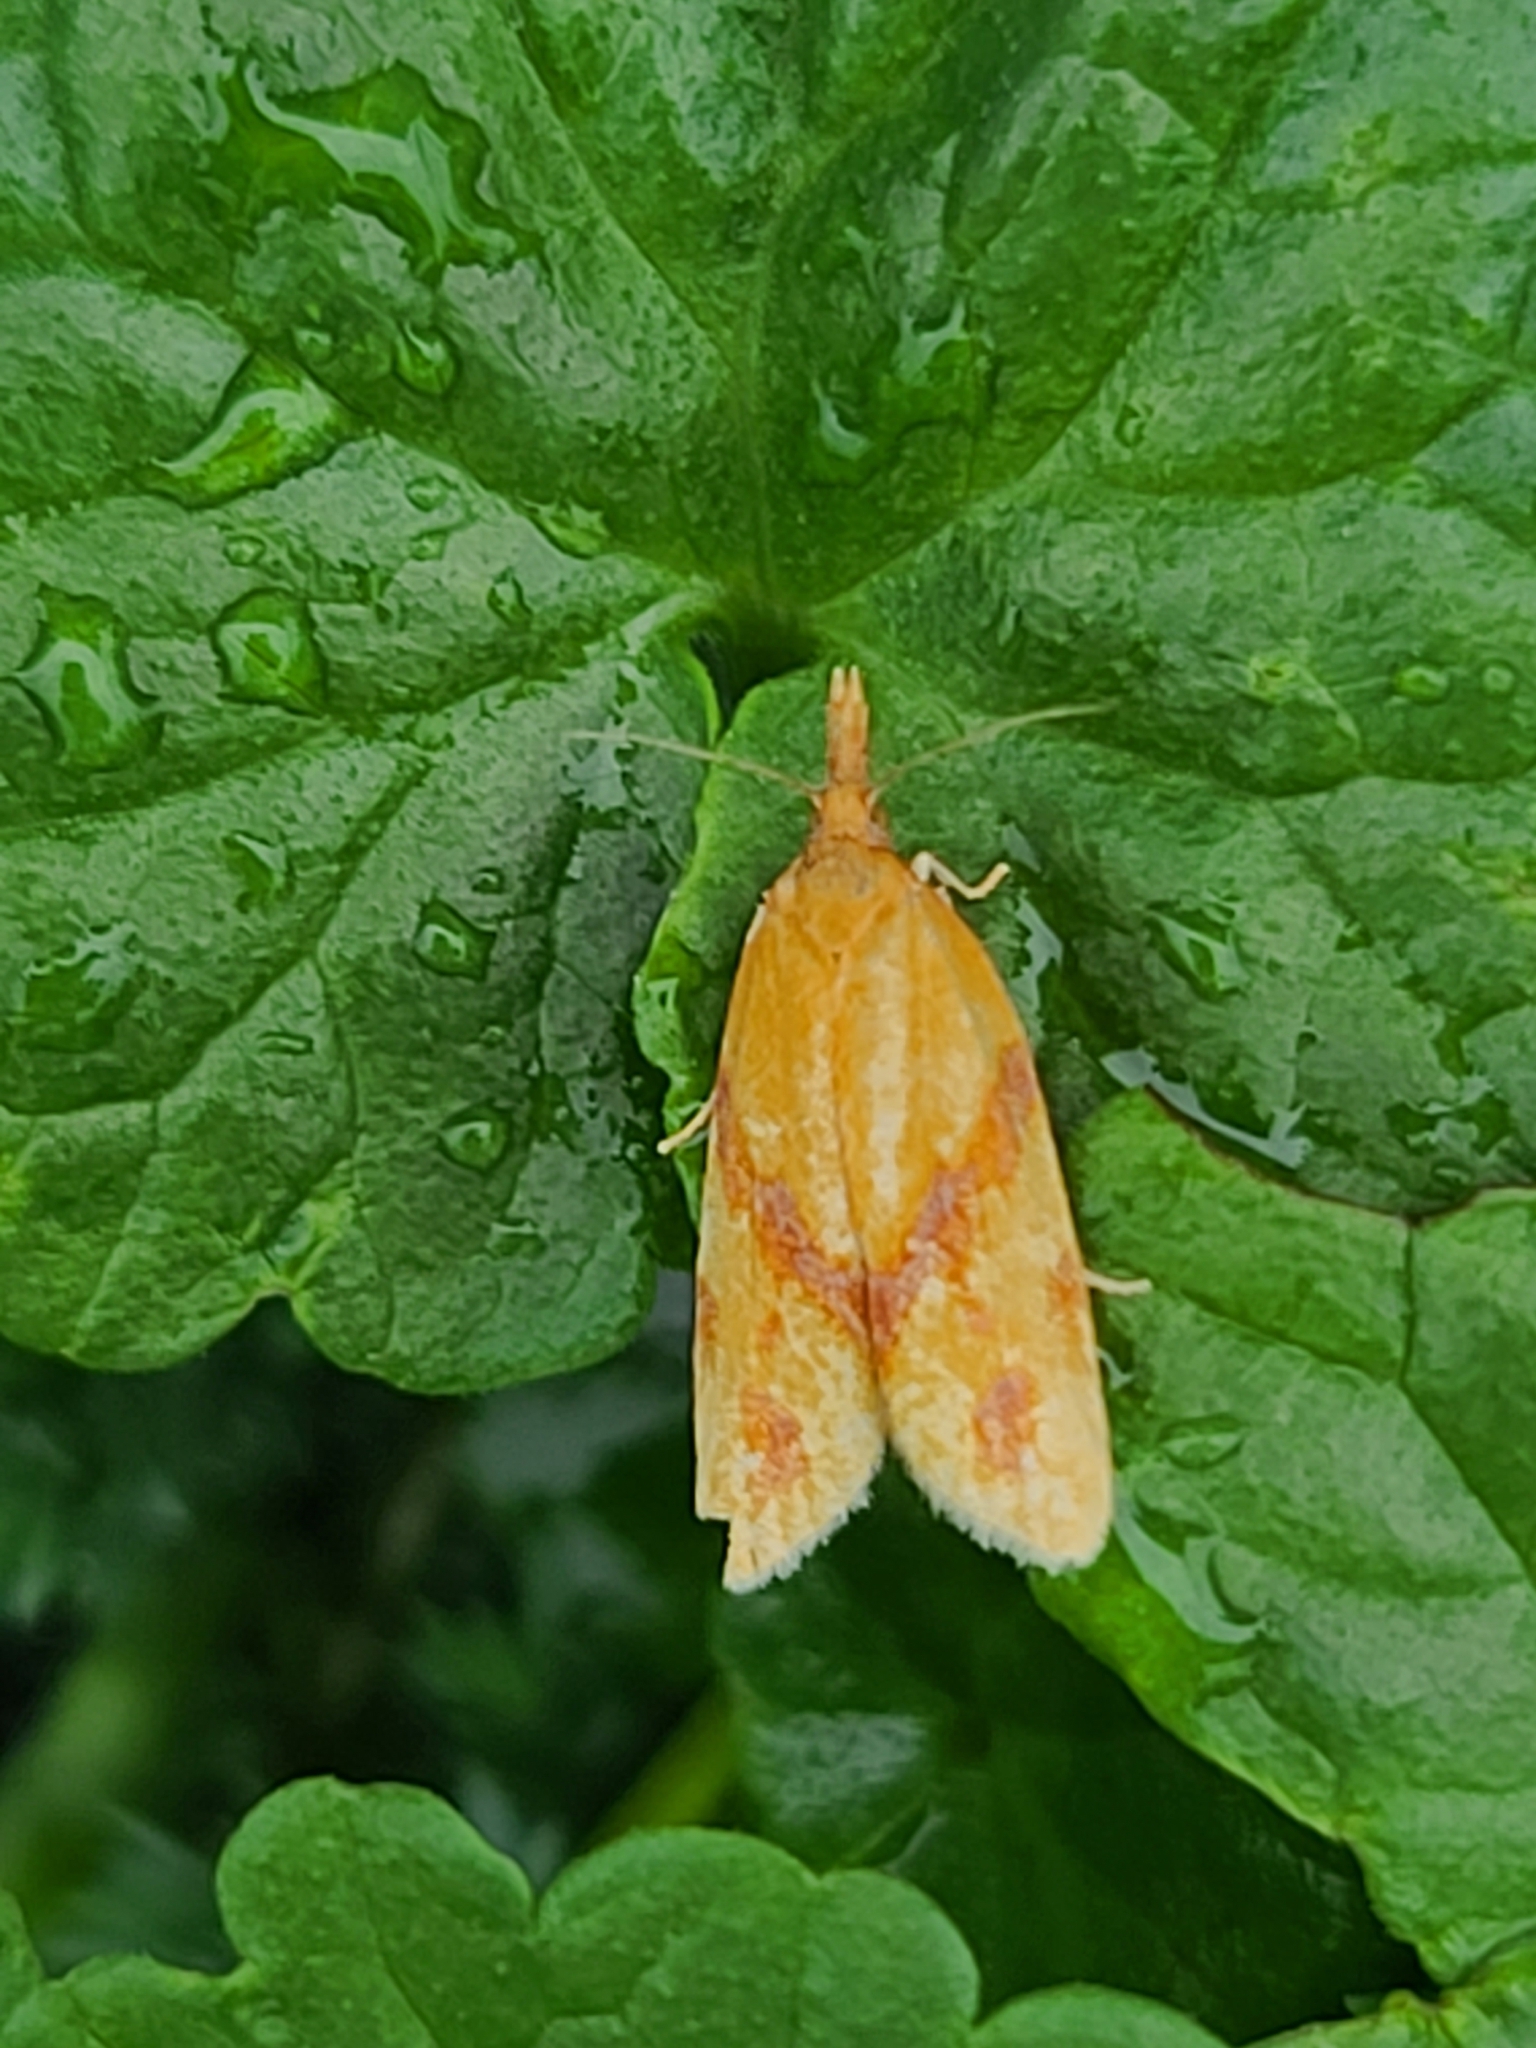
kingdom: Animalia
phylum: Arthropoda
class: Insecta
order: Lepidoptera
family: Tortricidae
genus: Sparganothis
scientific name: Sparganothis unifasciana
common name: One-lined sparganothis moth
